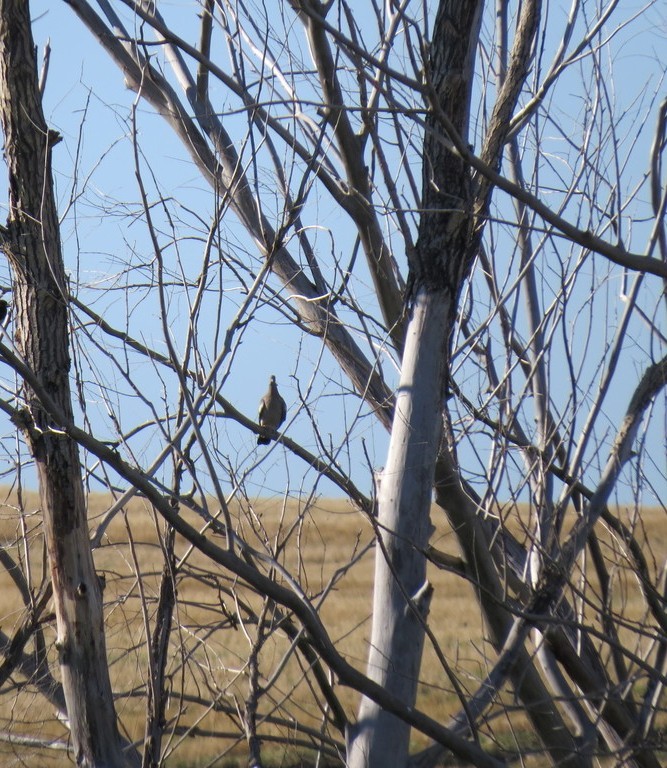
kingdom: Animalia
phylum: Chordata
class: Aves
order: Columbiformes
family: Columbidae
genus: Columba
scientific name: Columba palumbus
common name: Common wood pigeon
